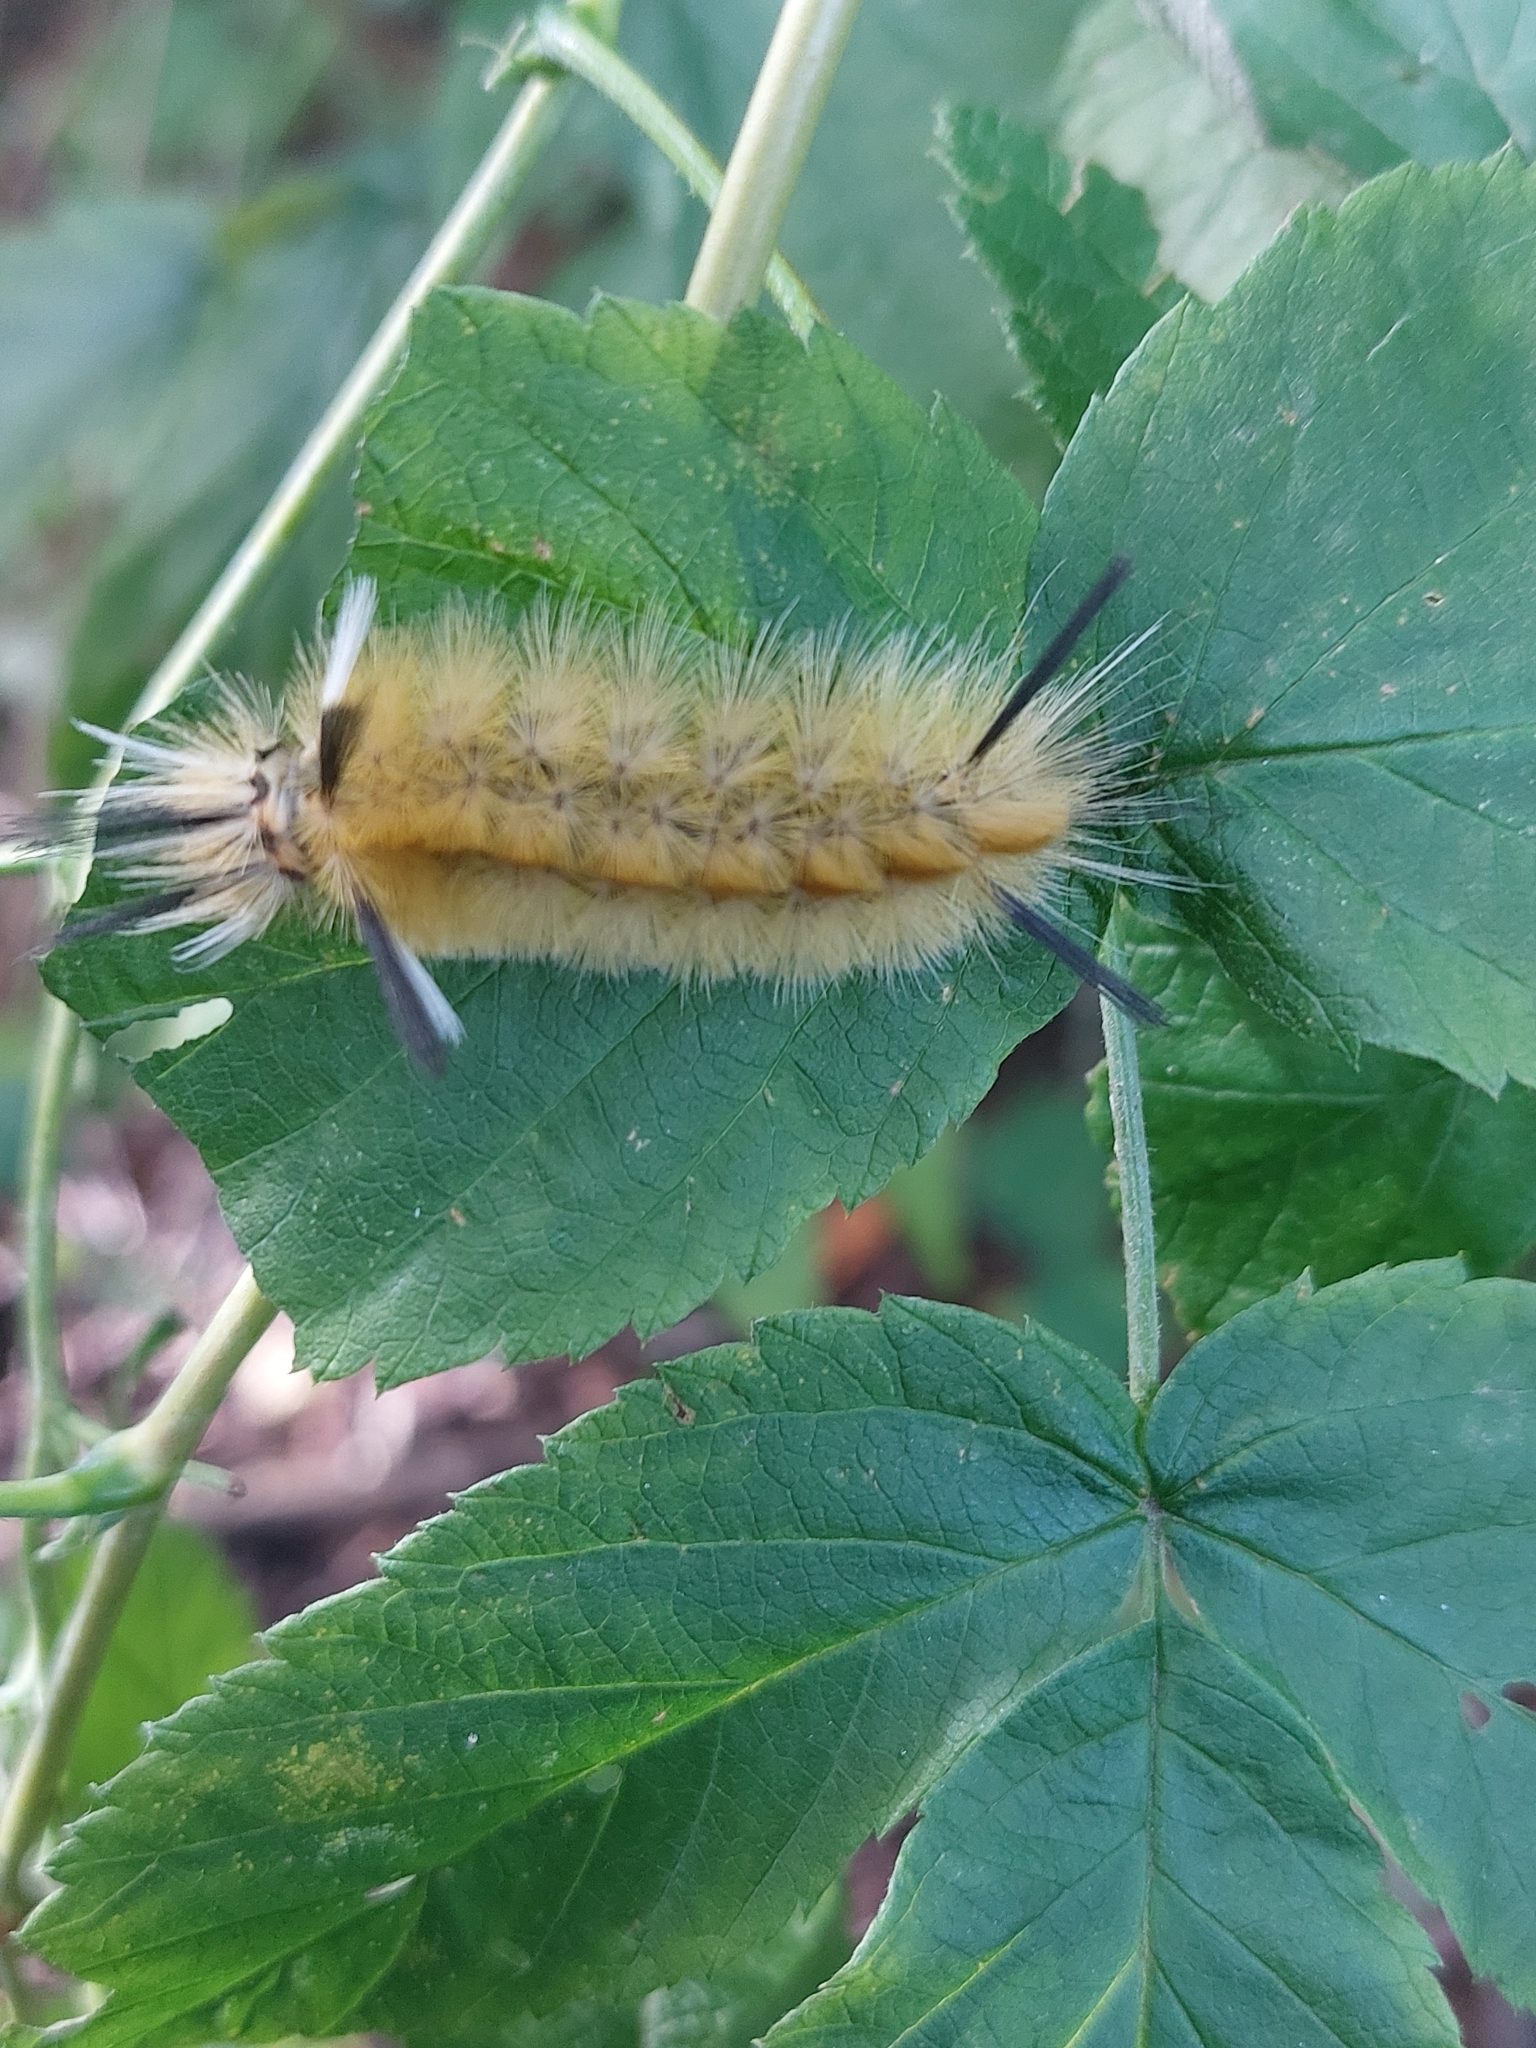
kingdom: Animalia
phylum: Arthropoda
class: Insecta
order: Lepidoptera
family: Erebidae
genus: Halysidota
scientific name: Halysidota tessellaris
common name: Banded tussock moth
